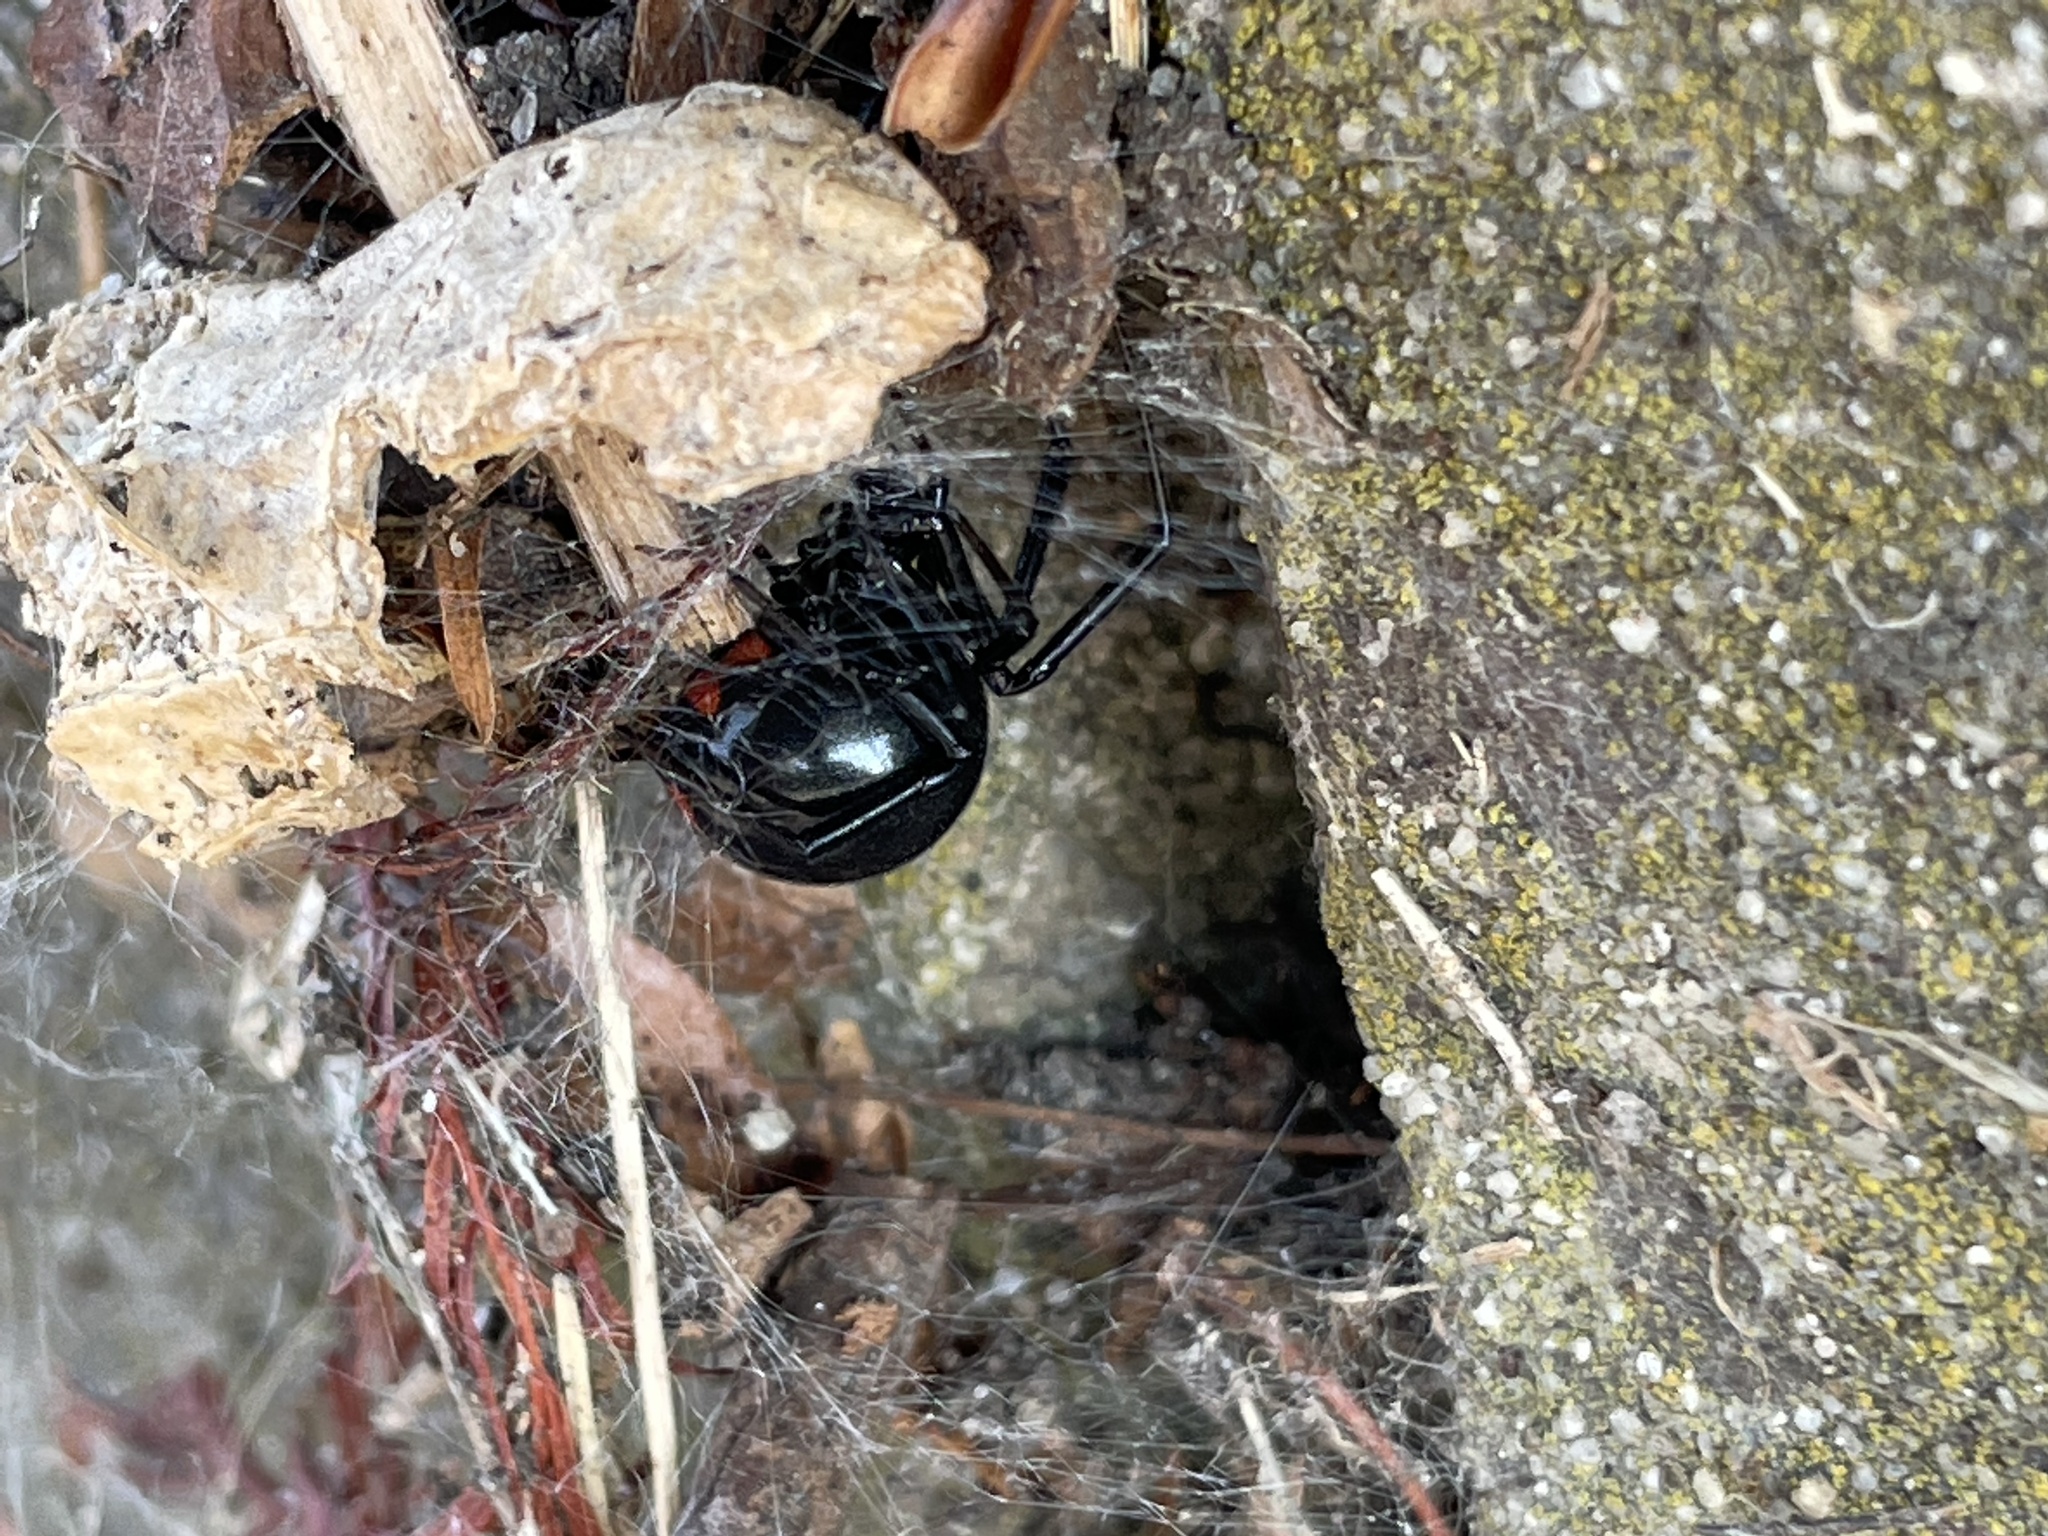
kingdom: Animalia
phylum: Arthropoda
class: Arachnida
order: Araneae
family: Theridiidae
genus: Latrodectus
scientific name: Latrodectus mactans
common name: Cobweb spiders
